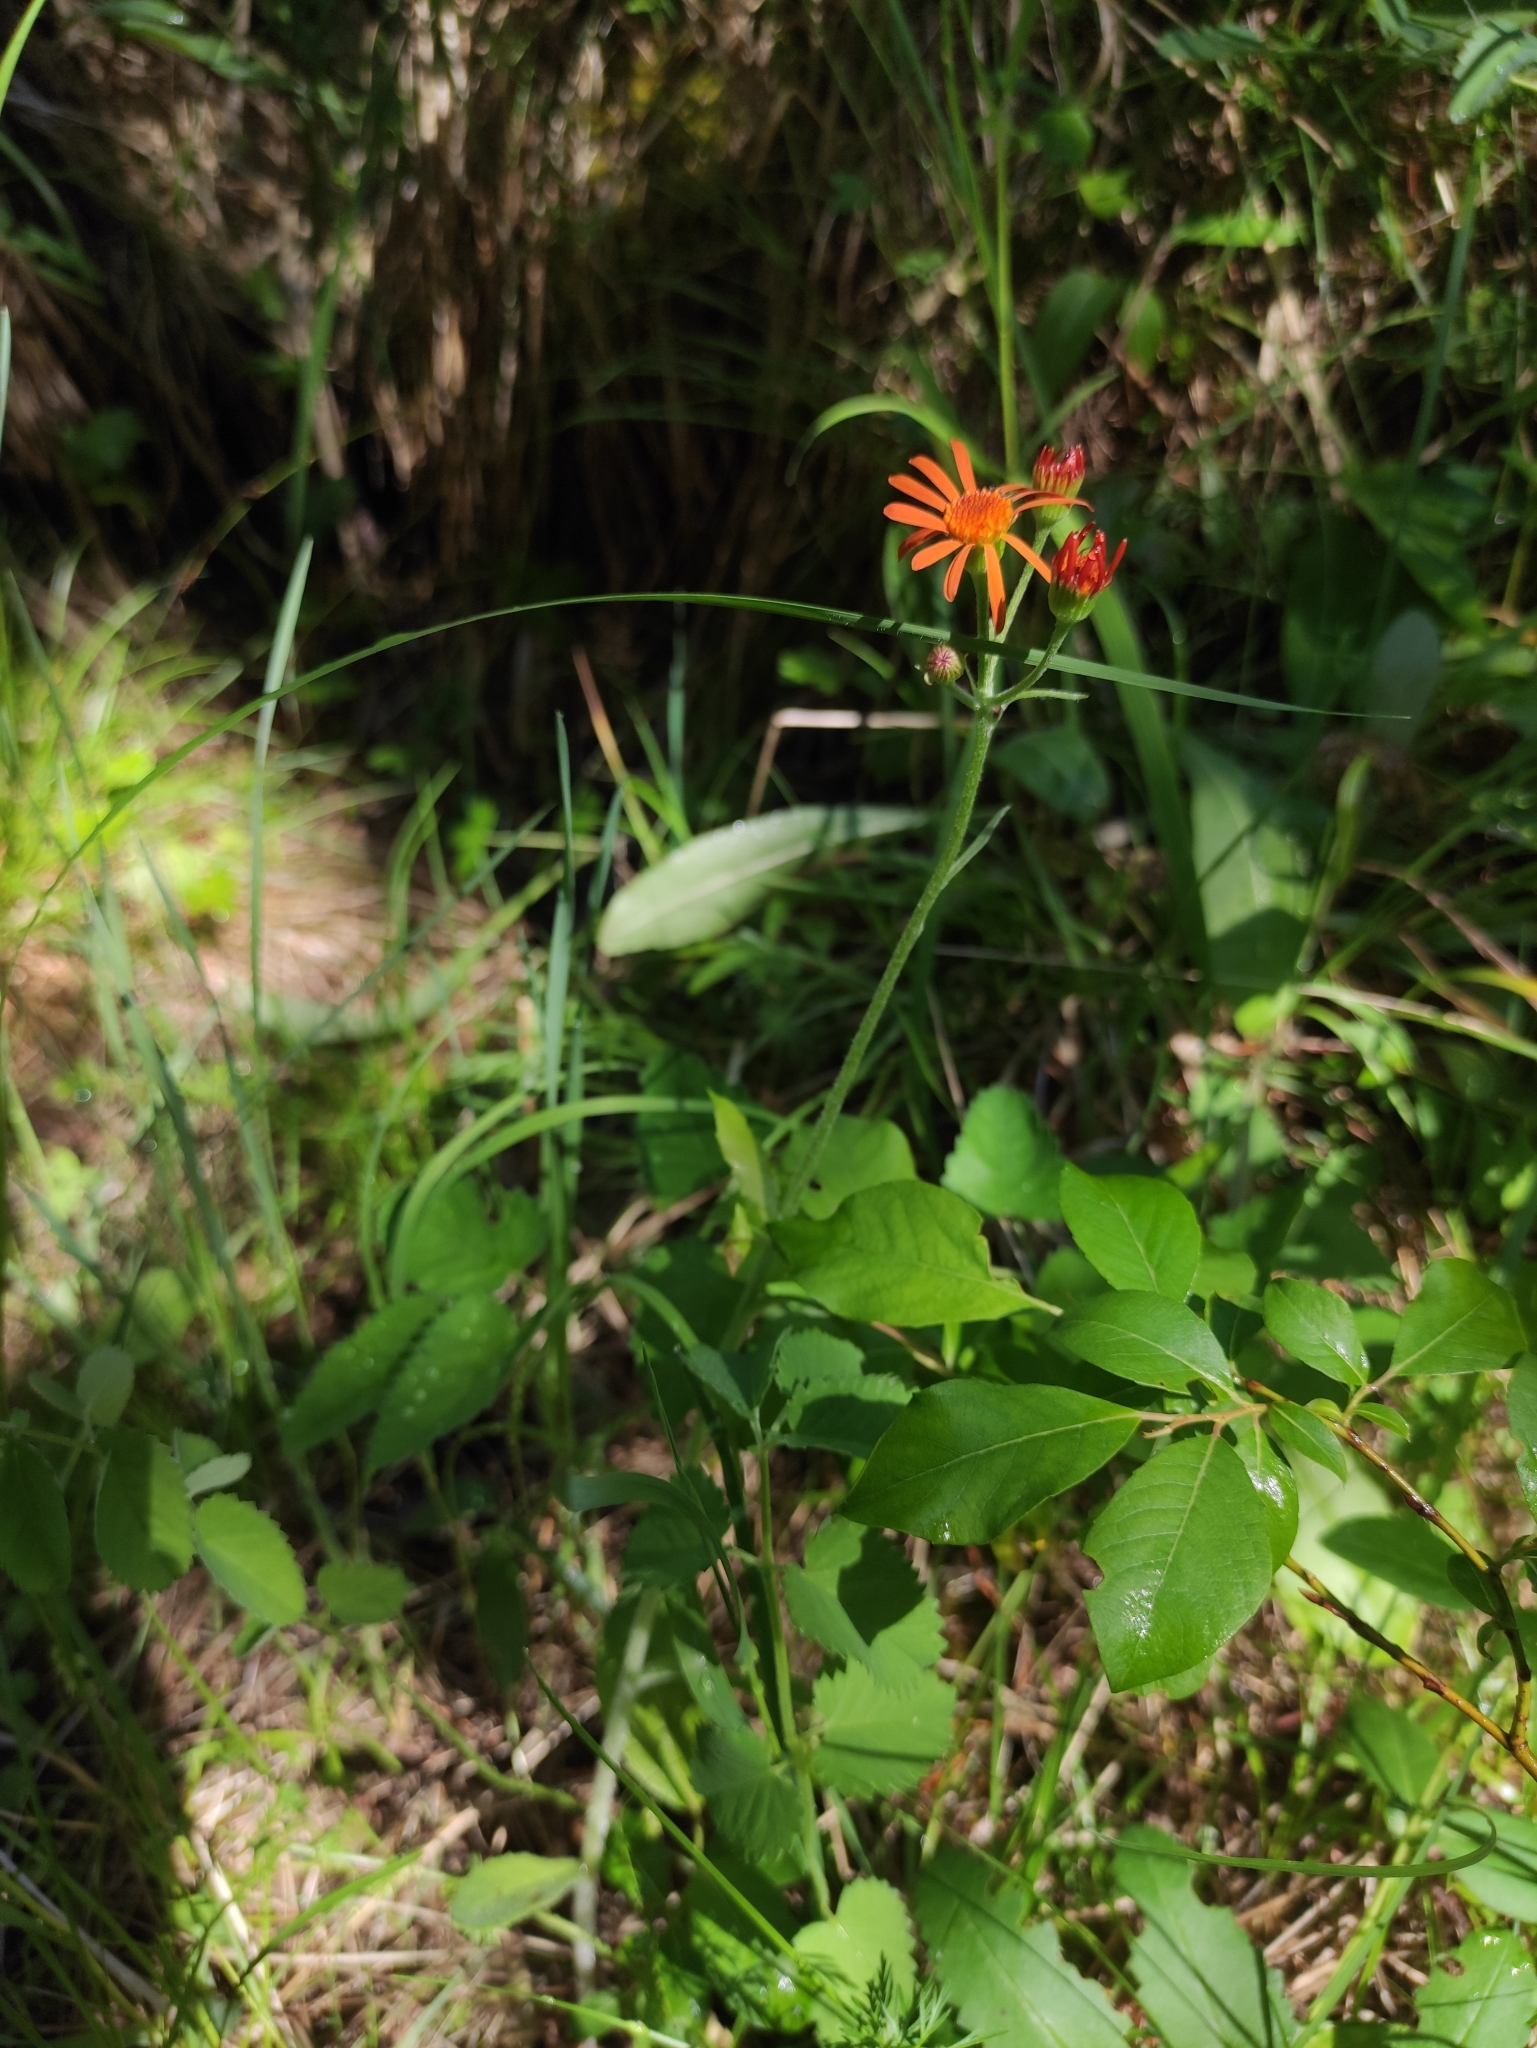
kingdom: Plantae
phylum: Tracheophyta
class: Magnoliopsida
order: Asterales
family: Asteraceae
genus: Tephroseris
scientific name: Tephroseris porphyrantha
